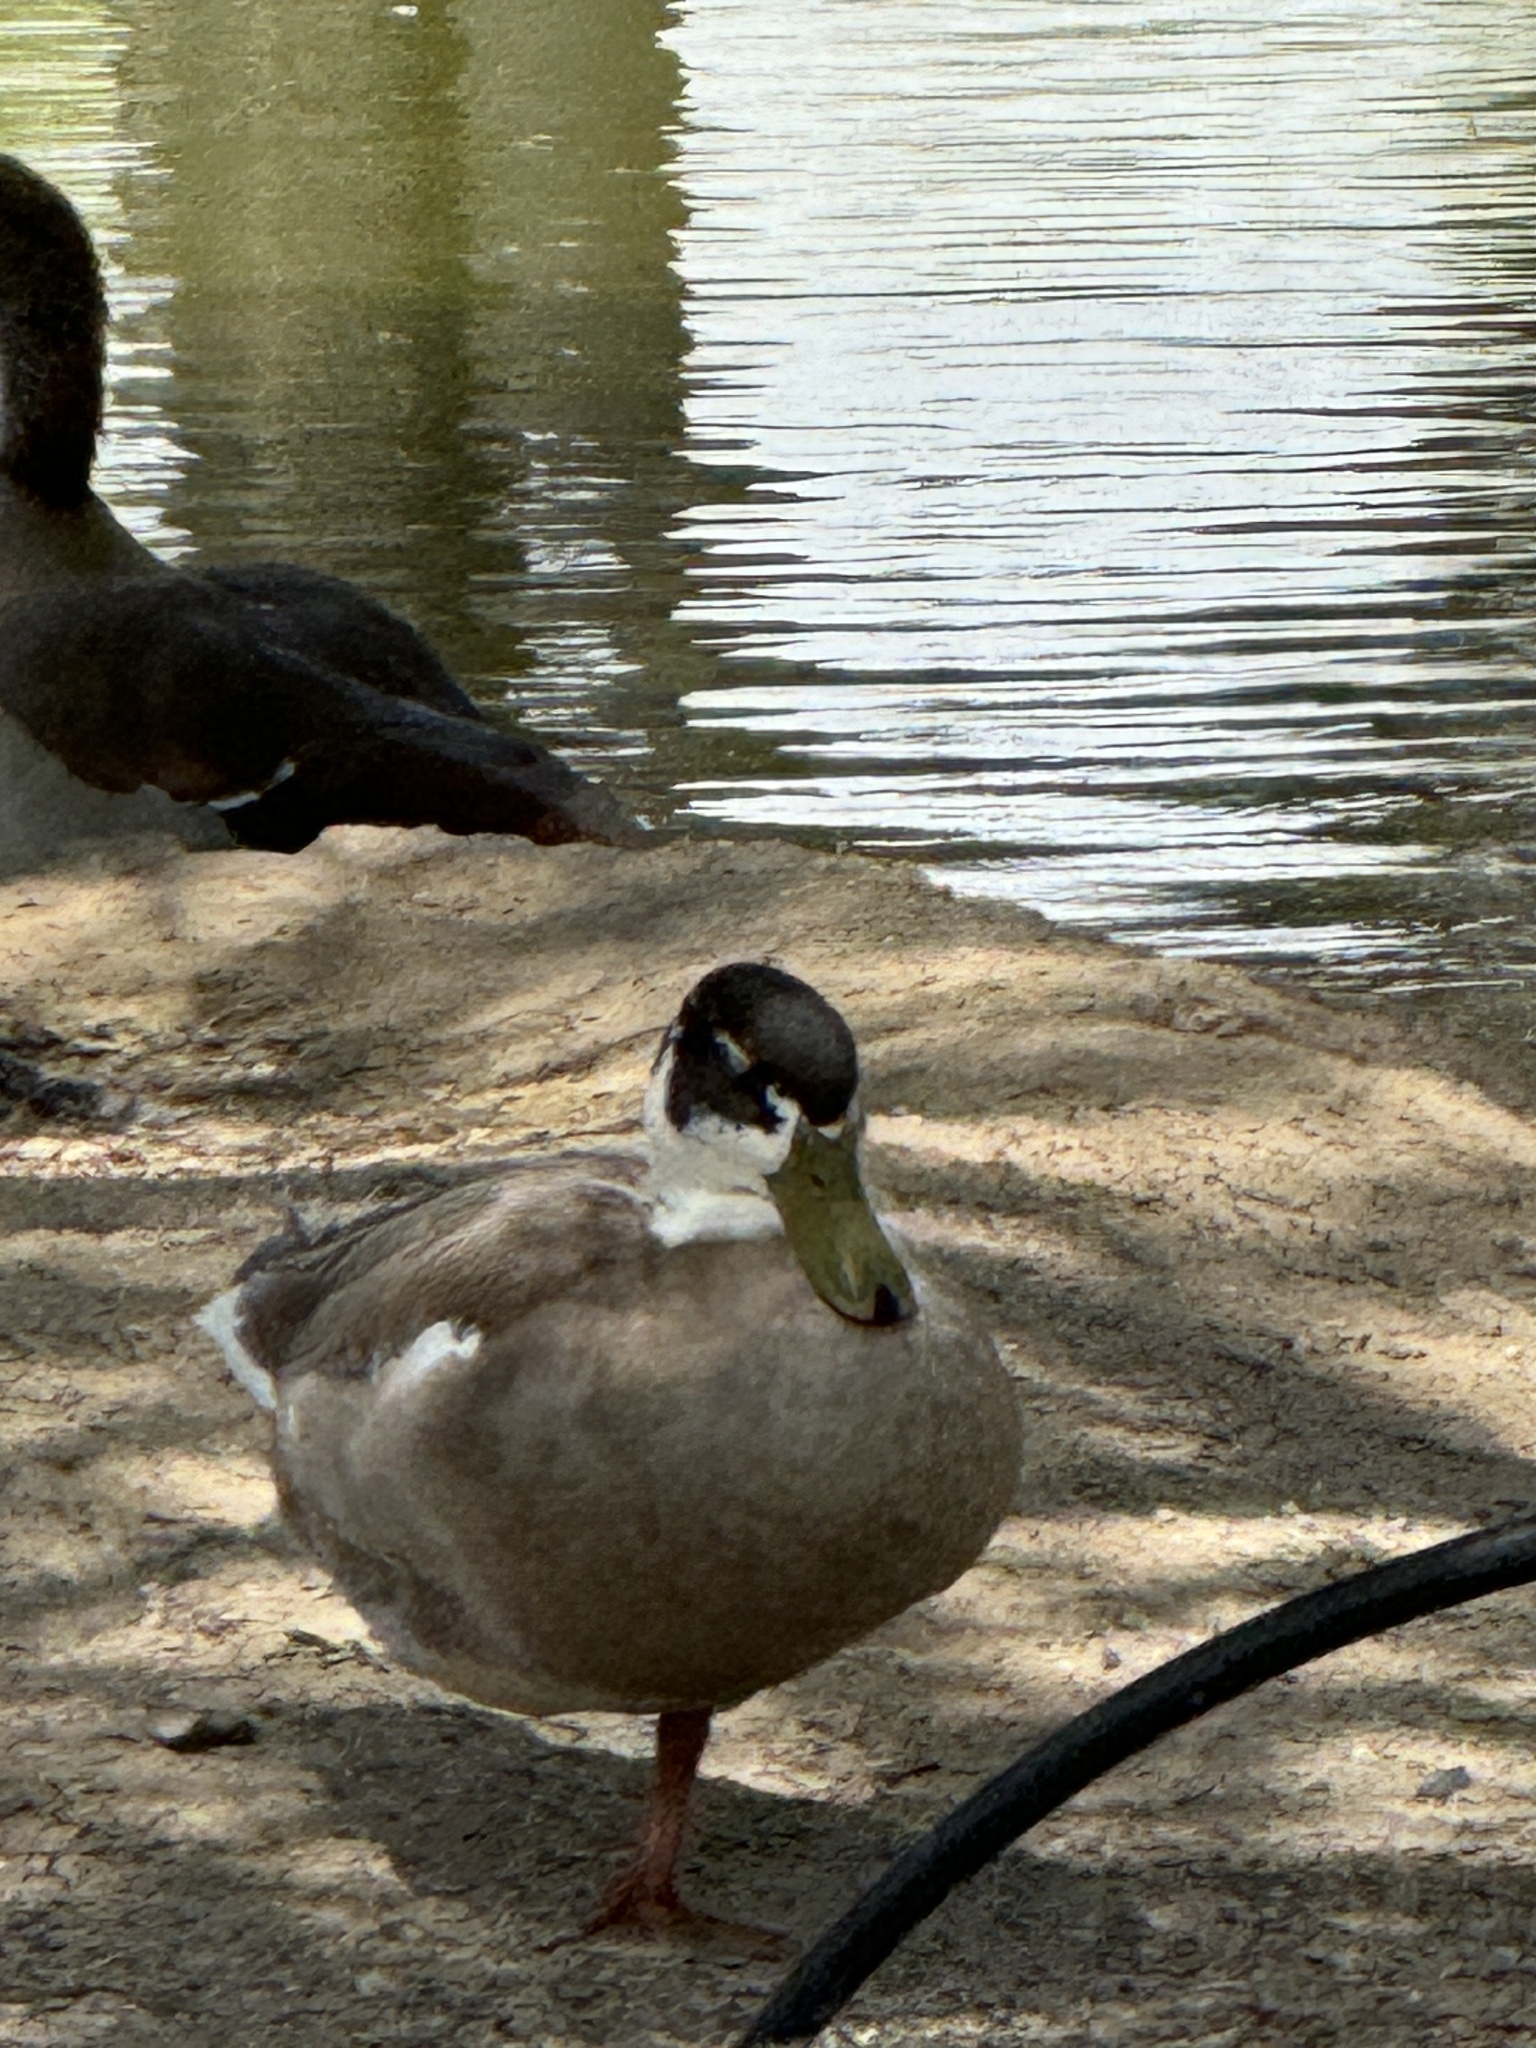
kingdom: Animalia
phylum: Chordata
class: Aves
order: Anseriformes
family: Anatidae
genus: Anas
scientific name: Anas platyrhynchos
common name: Mallard
